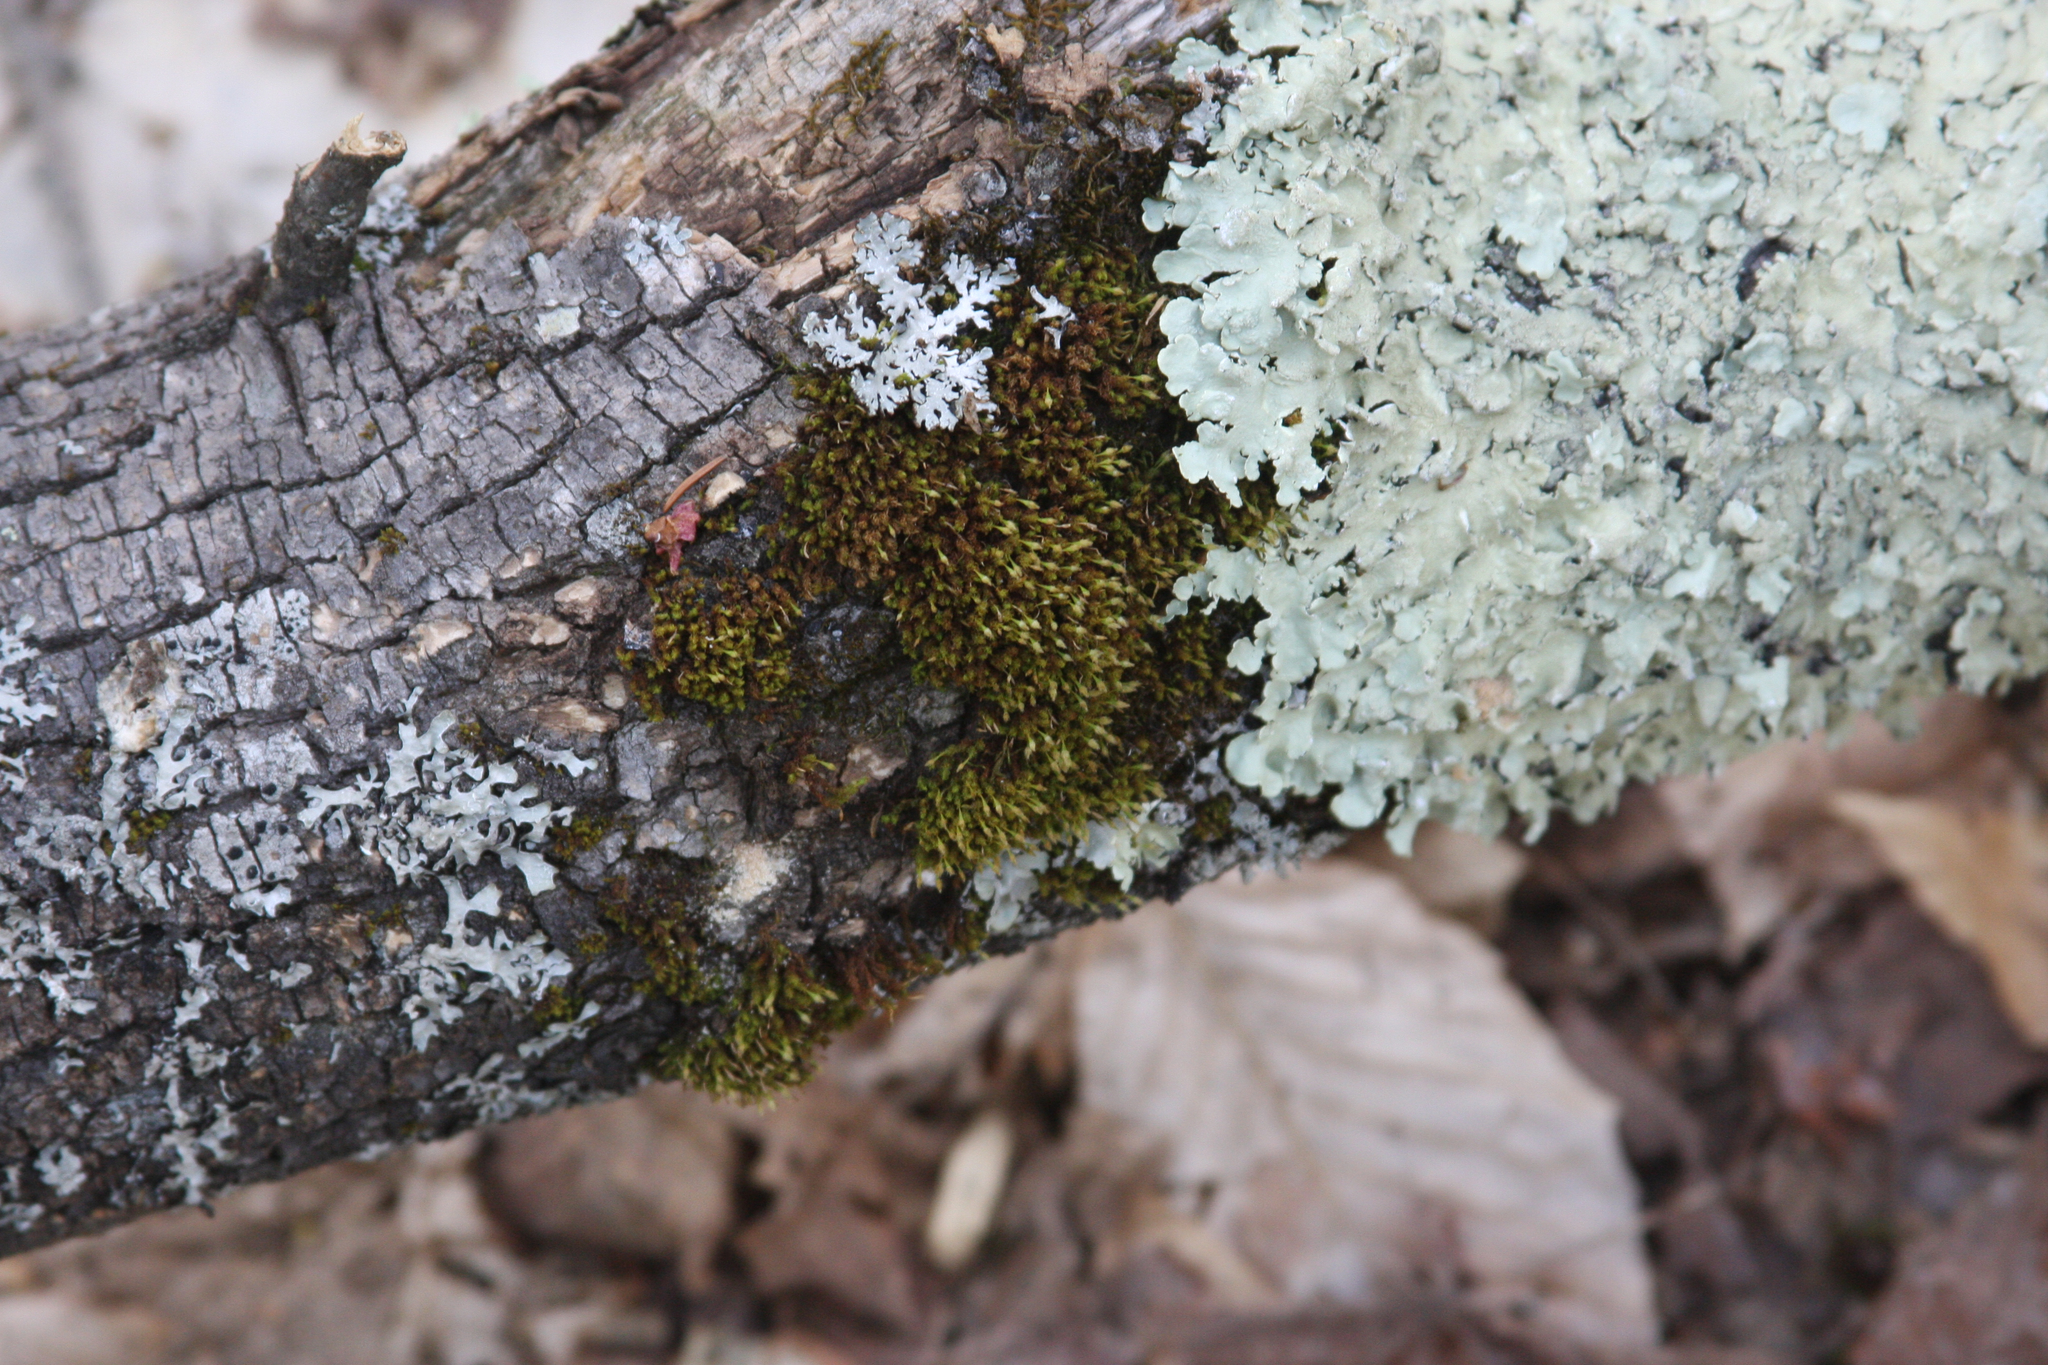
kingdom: Plantae
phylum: Bryophyta
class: Bryopsida
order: Orthotrichales
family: Orthotrichaceae
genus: Ulota
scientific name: Ulota crispa
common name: Crisped pincushion moss
